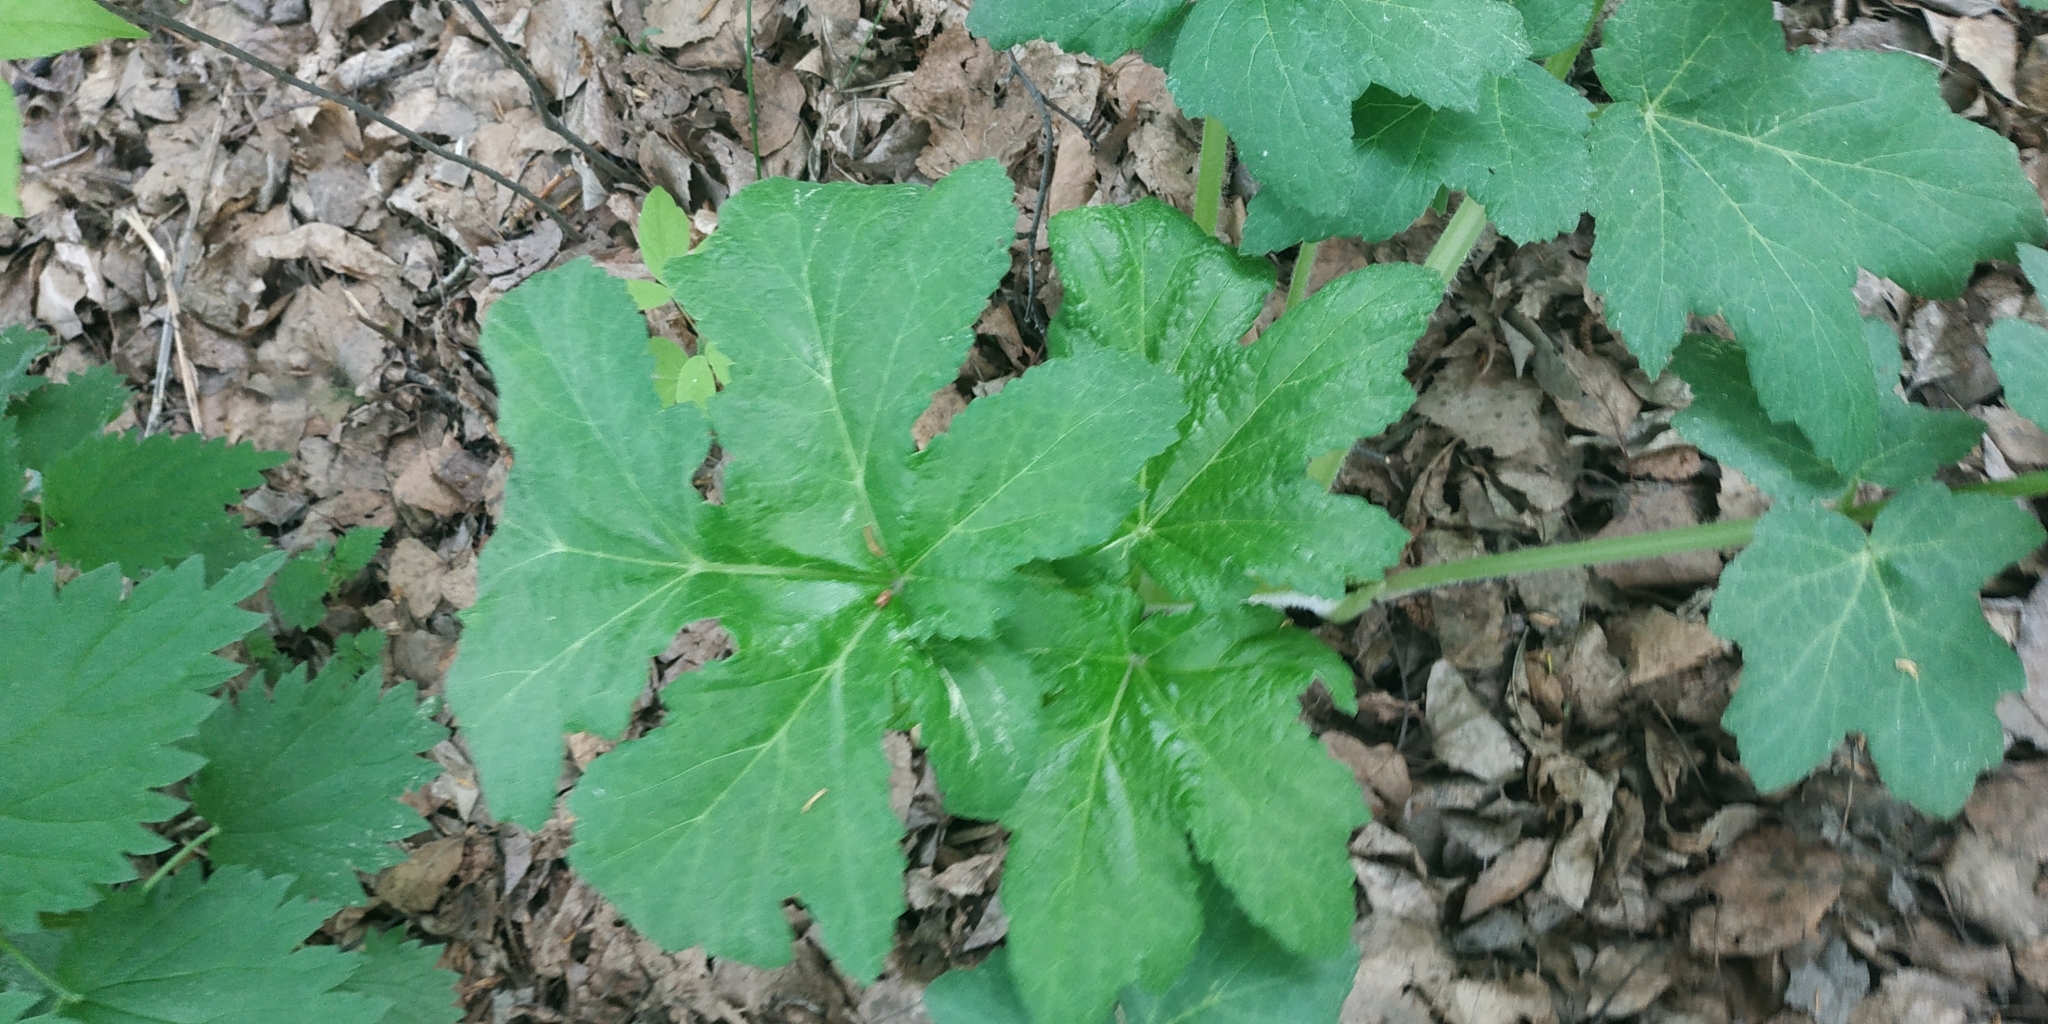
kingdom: Plantae
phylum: Tracheophyta
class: Magnoliopsida
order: Apiales
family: Apiaceae
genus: Heracleum
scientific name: Heracleum sphondylium
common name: Hogweed
